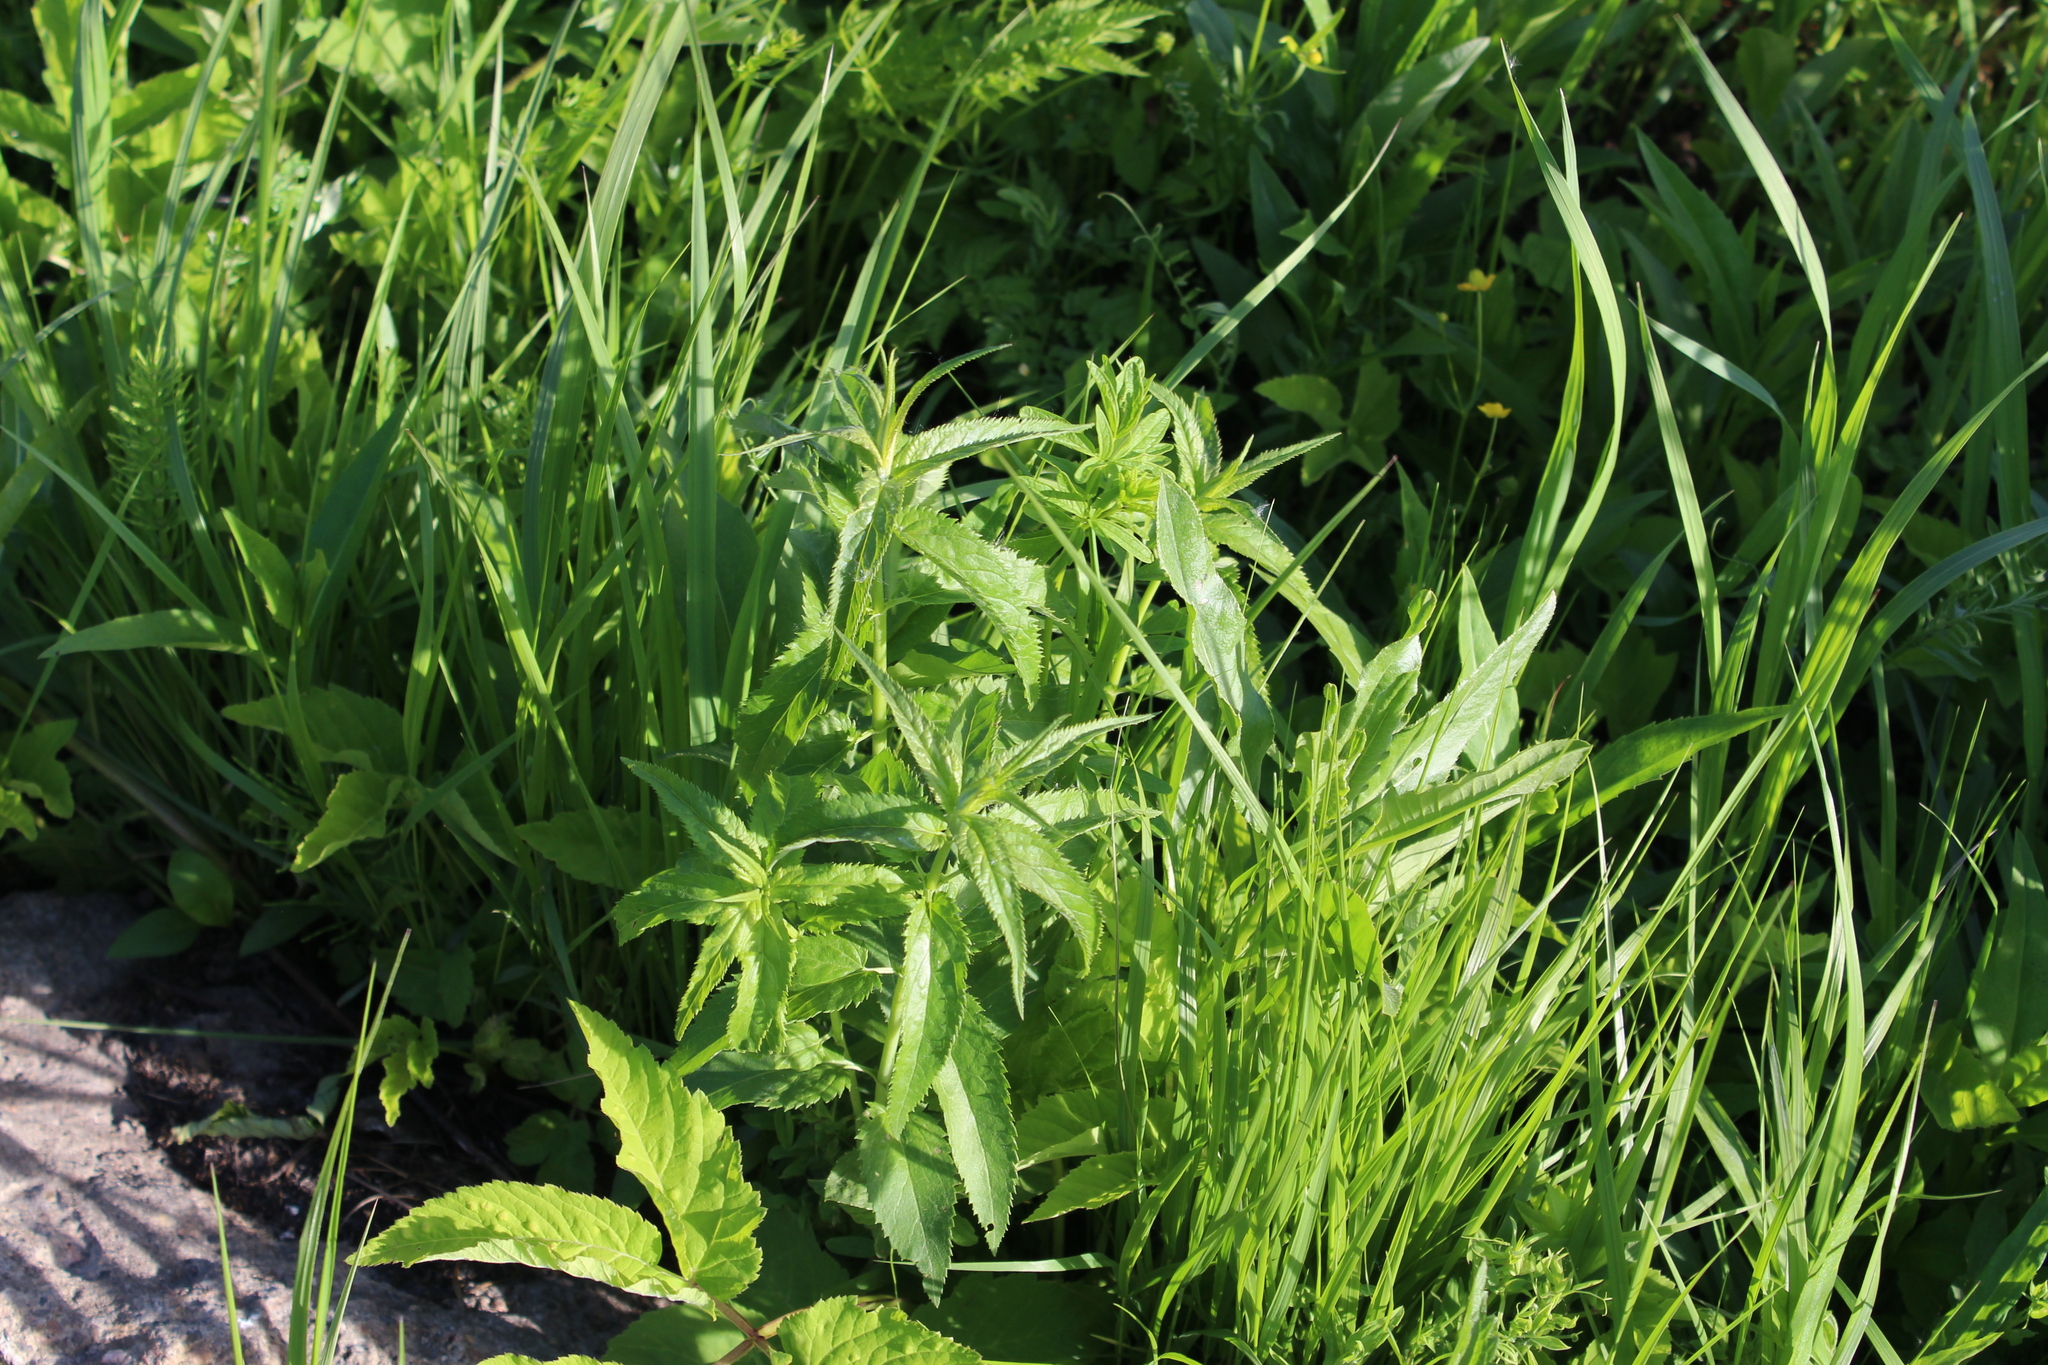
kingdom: Plantae
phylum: Tracheophyta
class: Magnoliopsida
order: Lamiales
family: Plantaginaceae
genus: Veronica
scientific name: Veronica longifolia
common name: Garden speedwell
